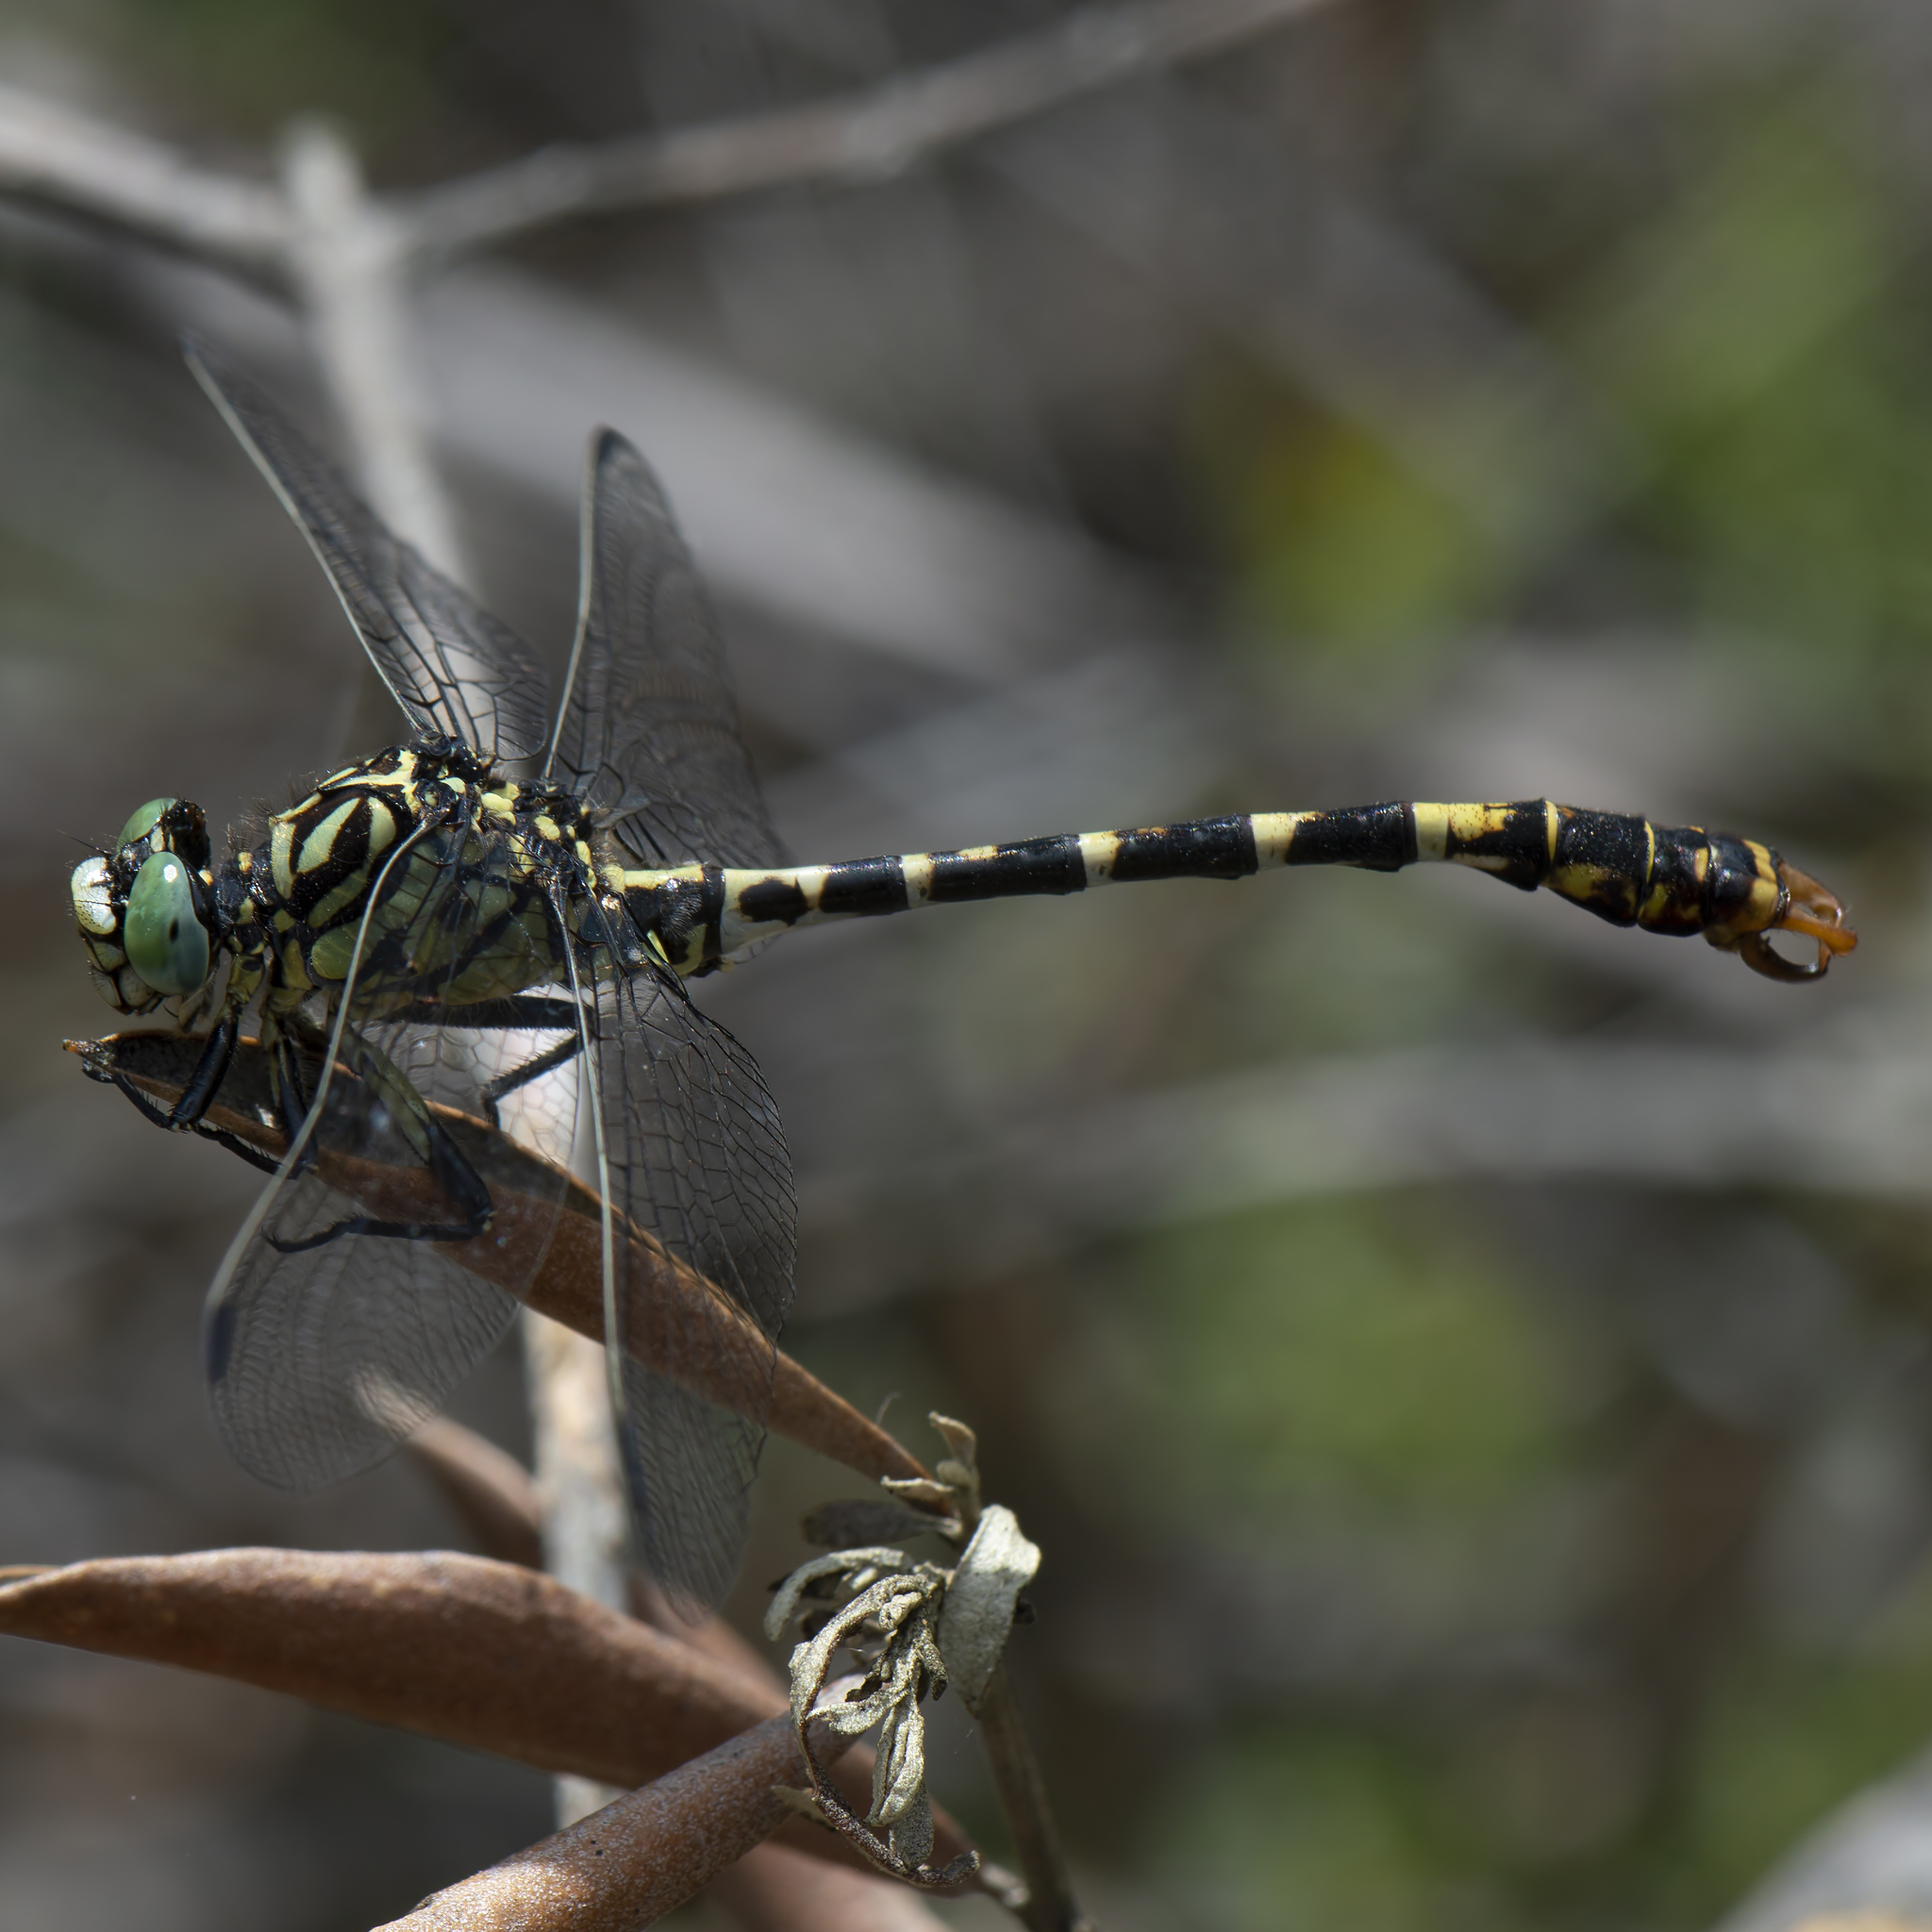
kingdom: Animalia
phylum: Arthropoda
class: Insecta
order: Odonata
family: Gomphidae
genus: Onychogomphus
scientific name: Onychogomphus forcipatus
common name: Small pincertail
